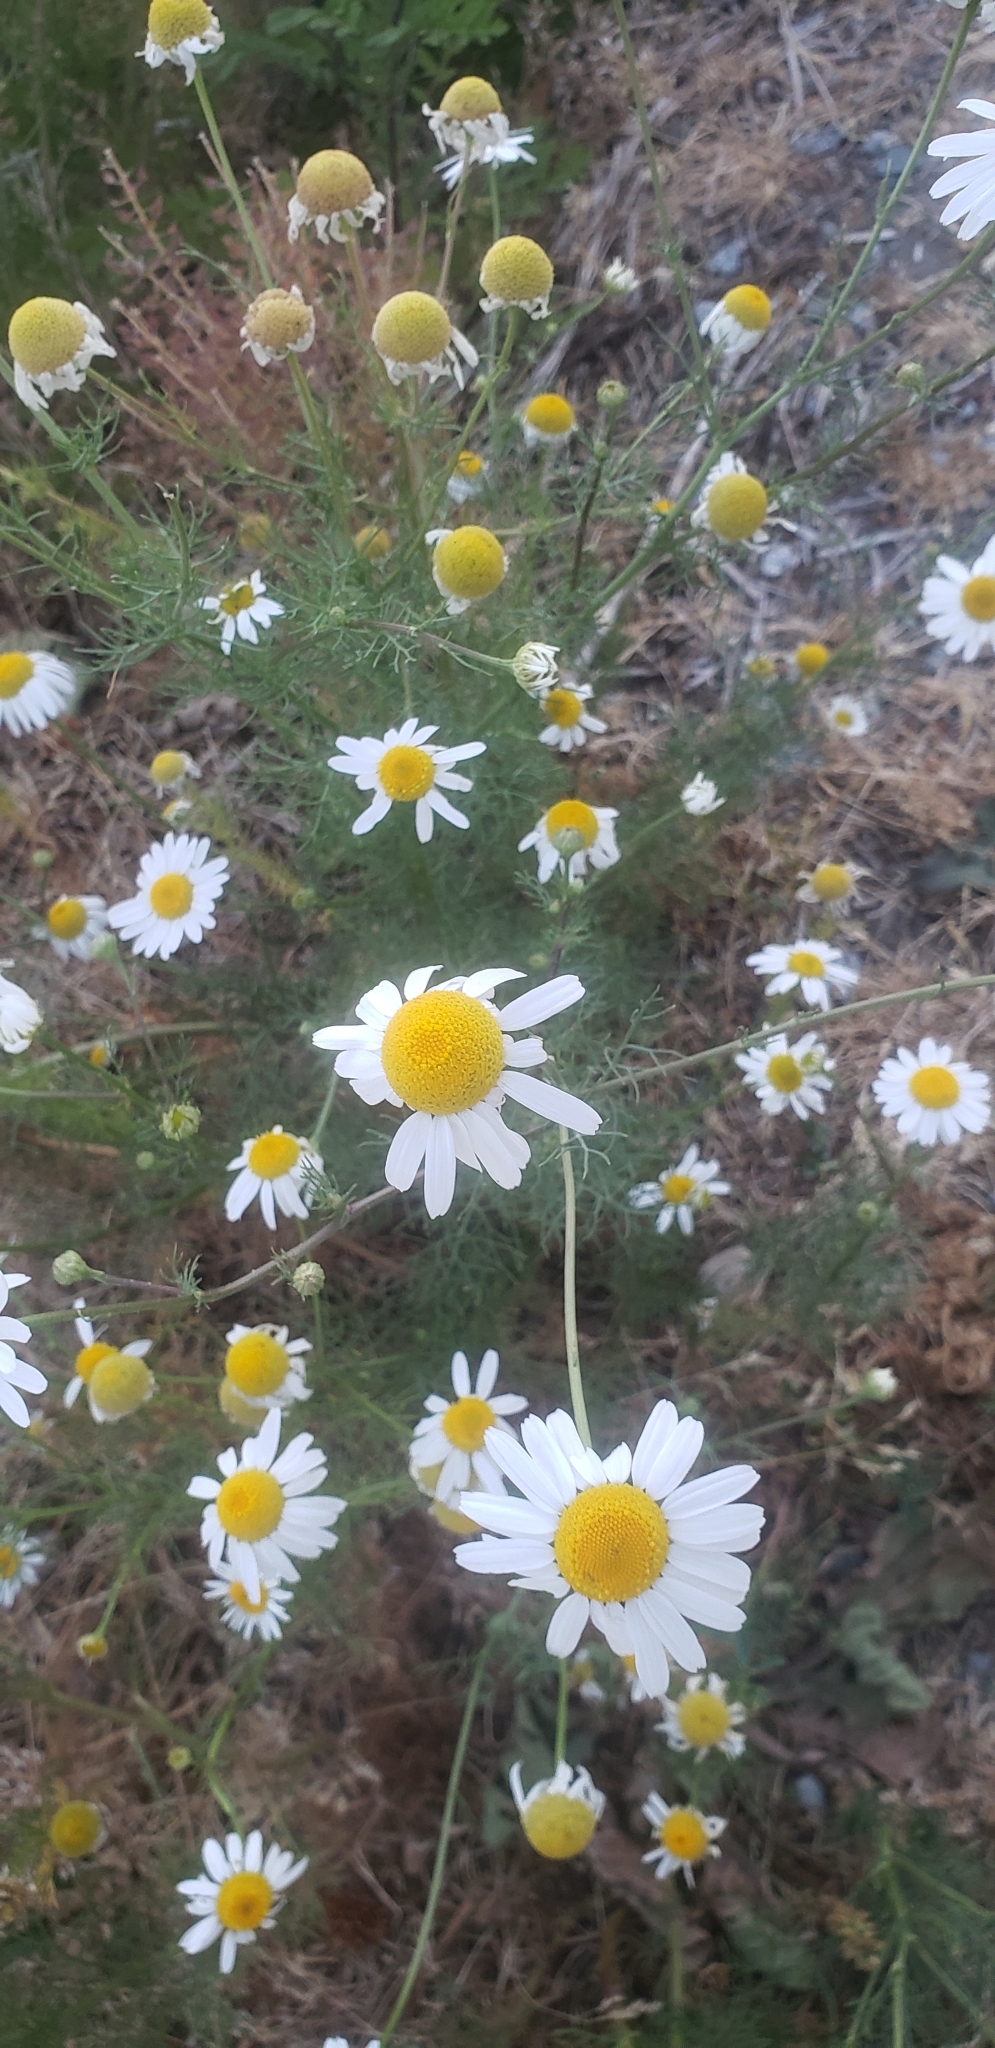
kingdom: Plantae
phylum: Tracheophyta
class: Magnoliopsida
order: Asterales
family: Asteraceae
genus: Tripleurospermum
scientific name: Tripleurospermum inodorum
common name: Scentless mayweed
